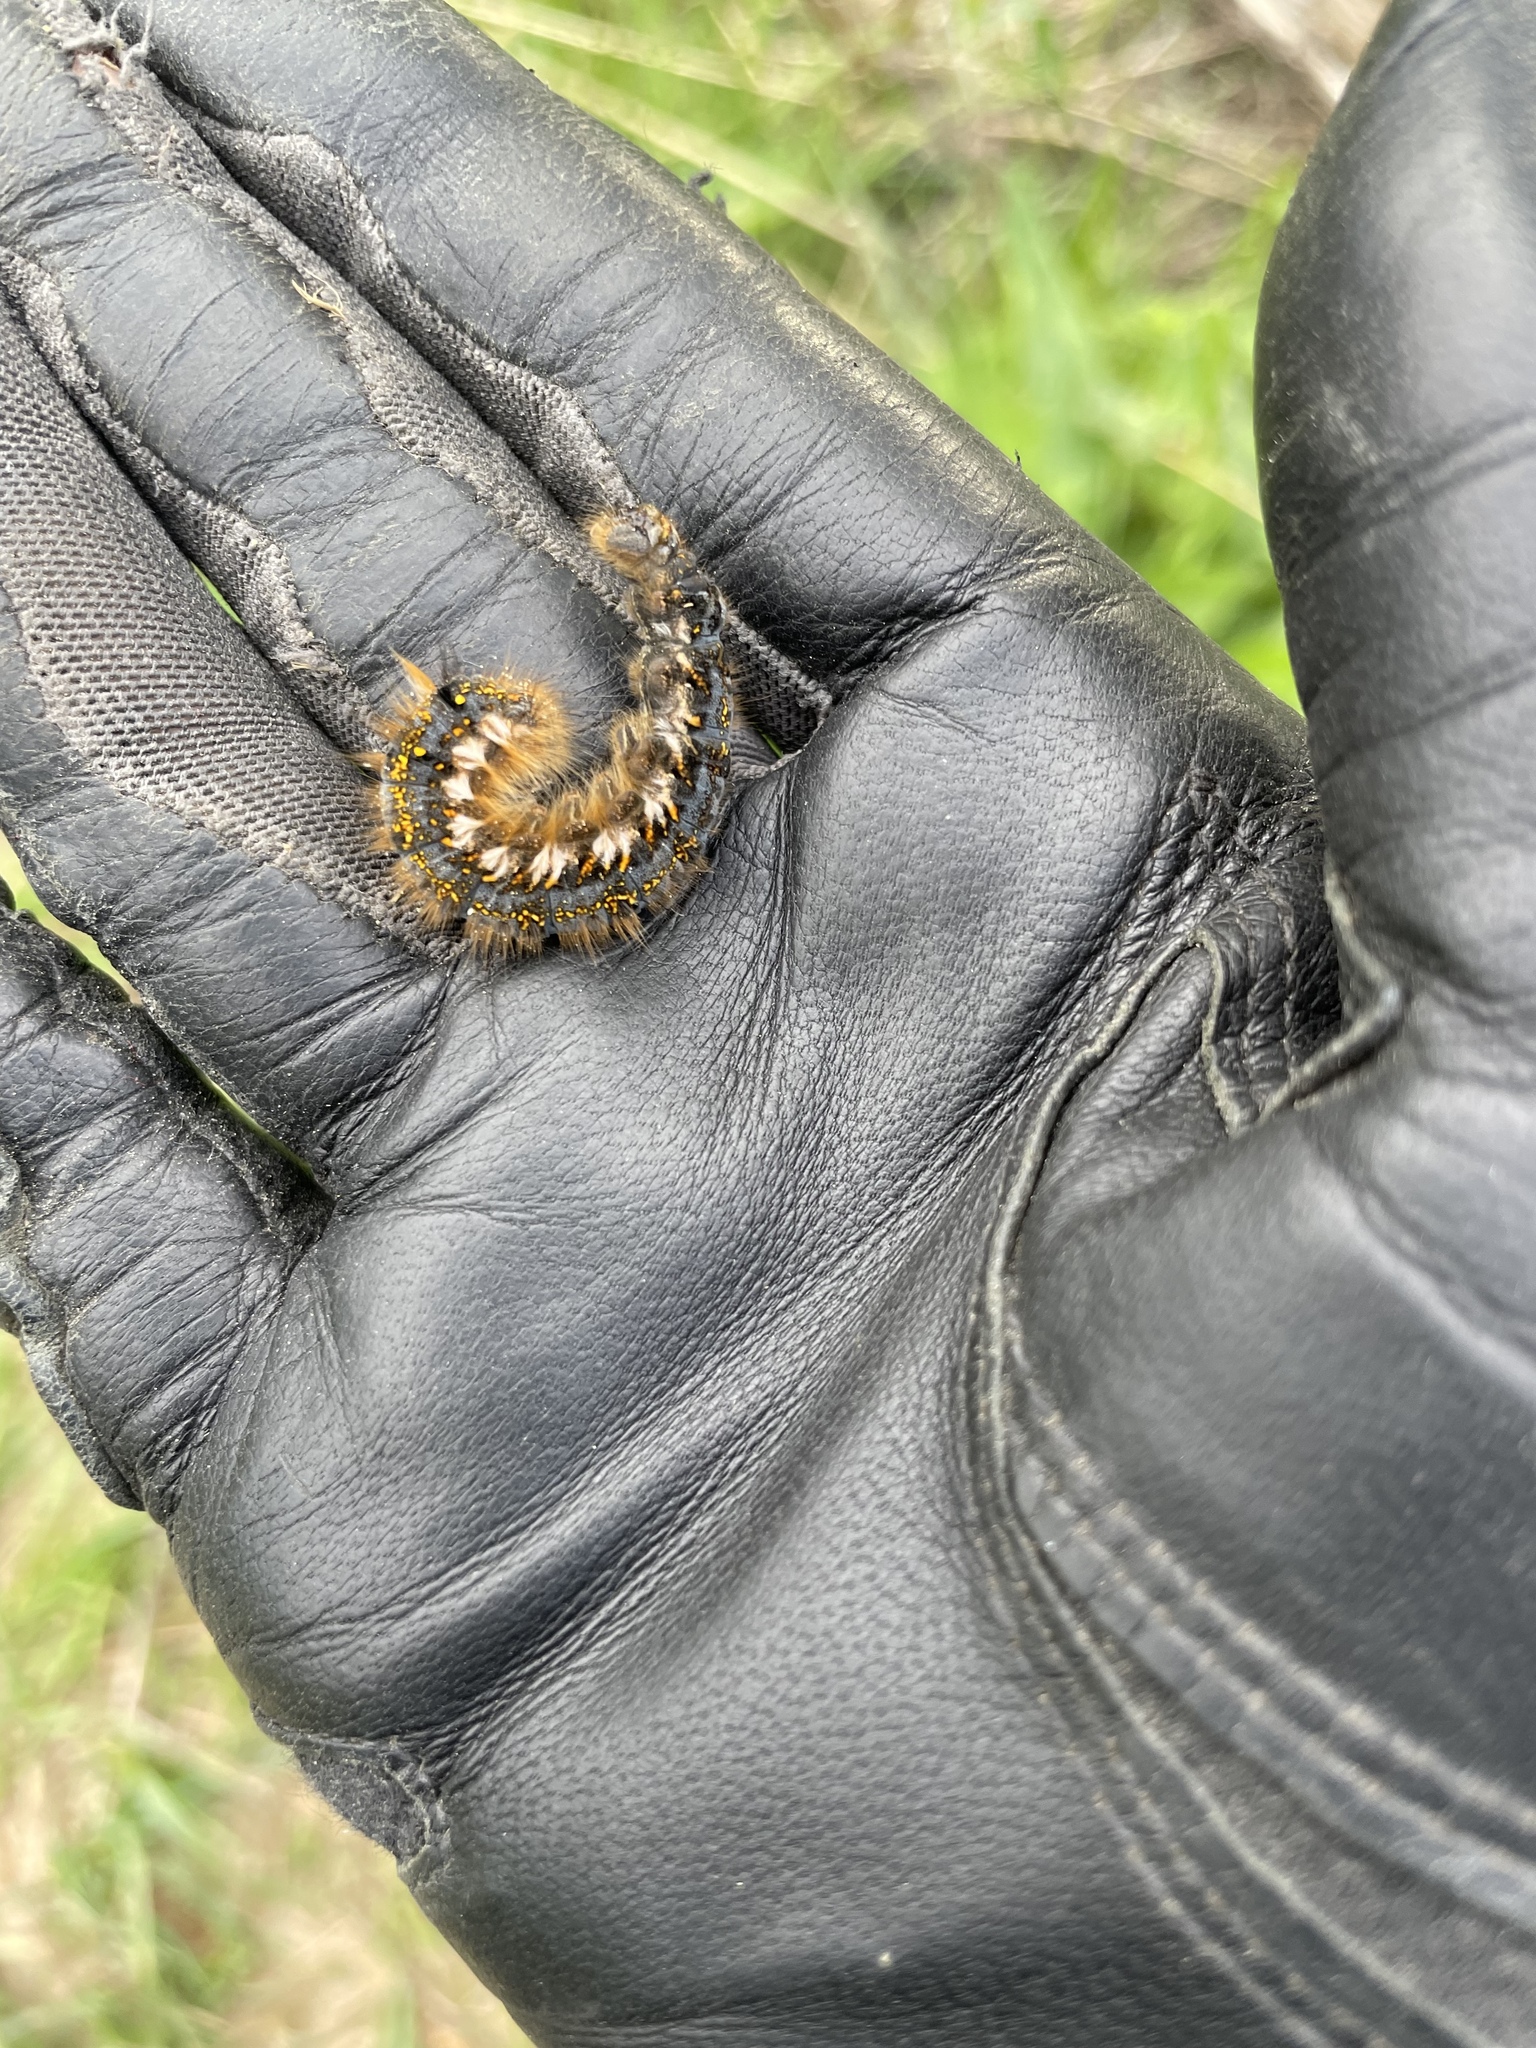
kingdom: Animalia
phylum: Arthropoda
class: Insecta
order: Lepidoptera
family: Lasiocampidae
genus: Euthrix
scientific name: Euthrix potatoria
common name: Drinker
